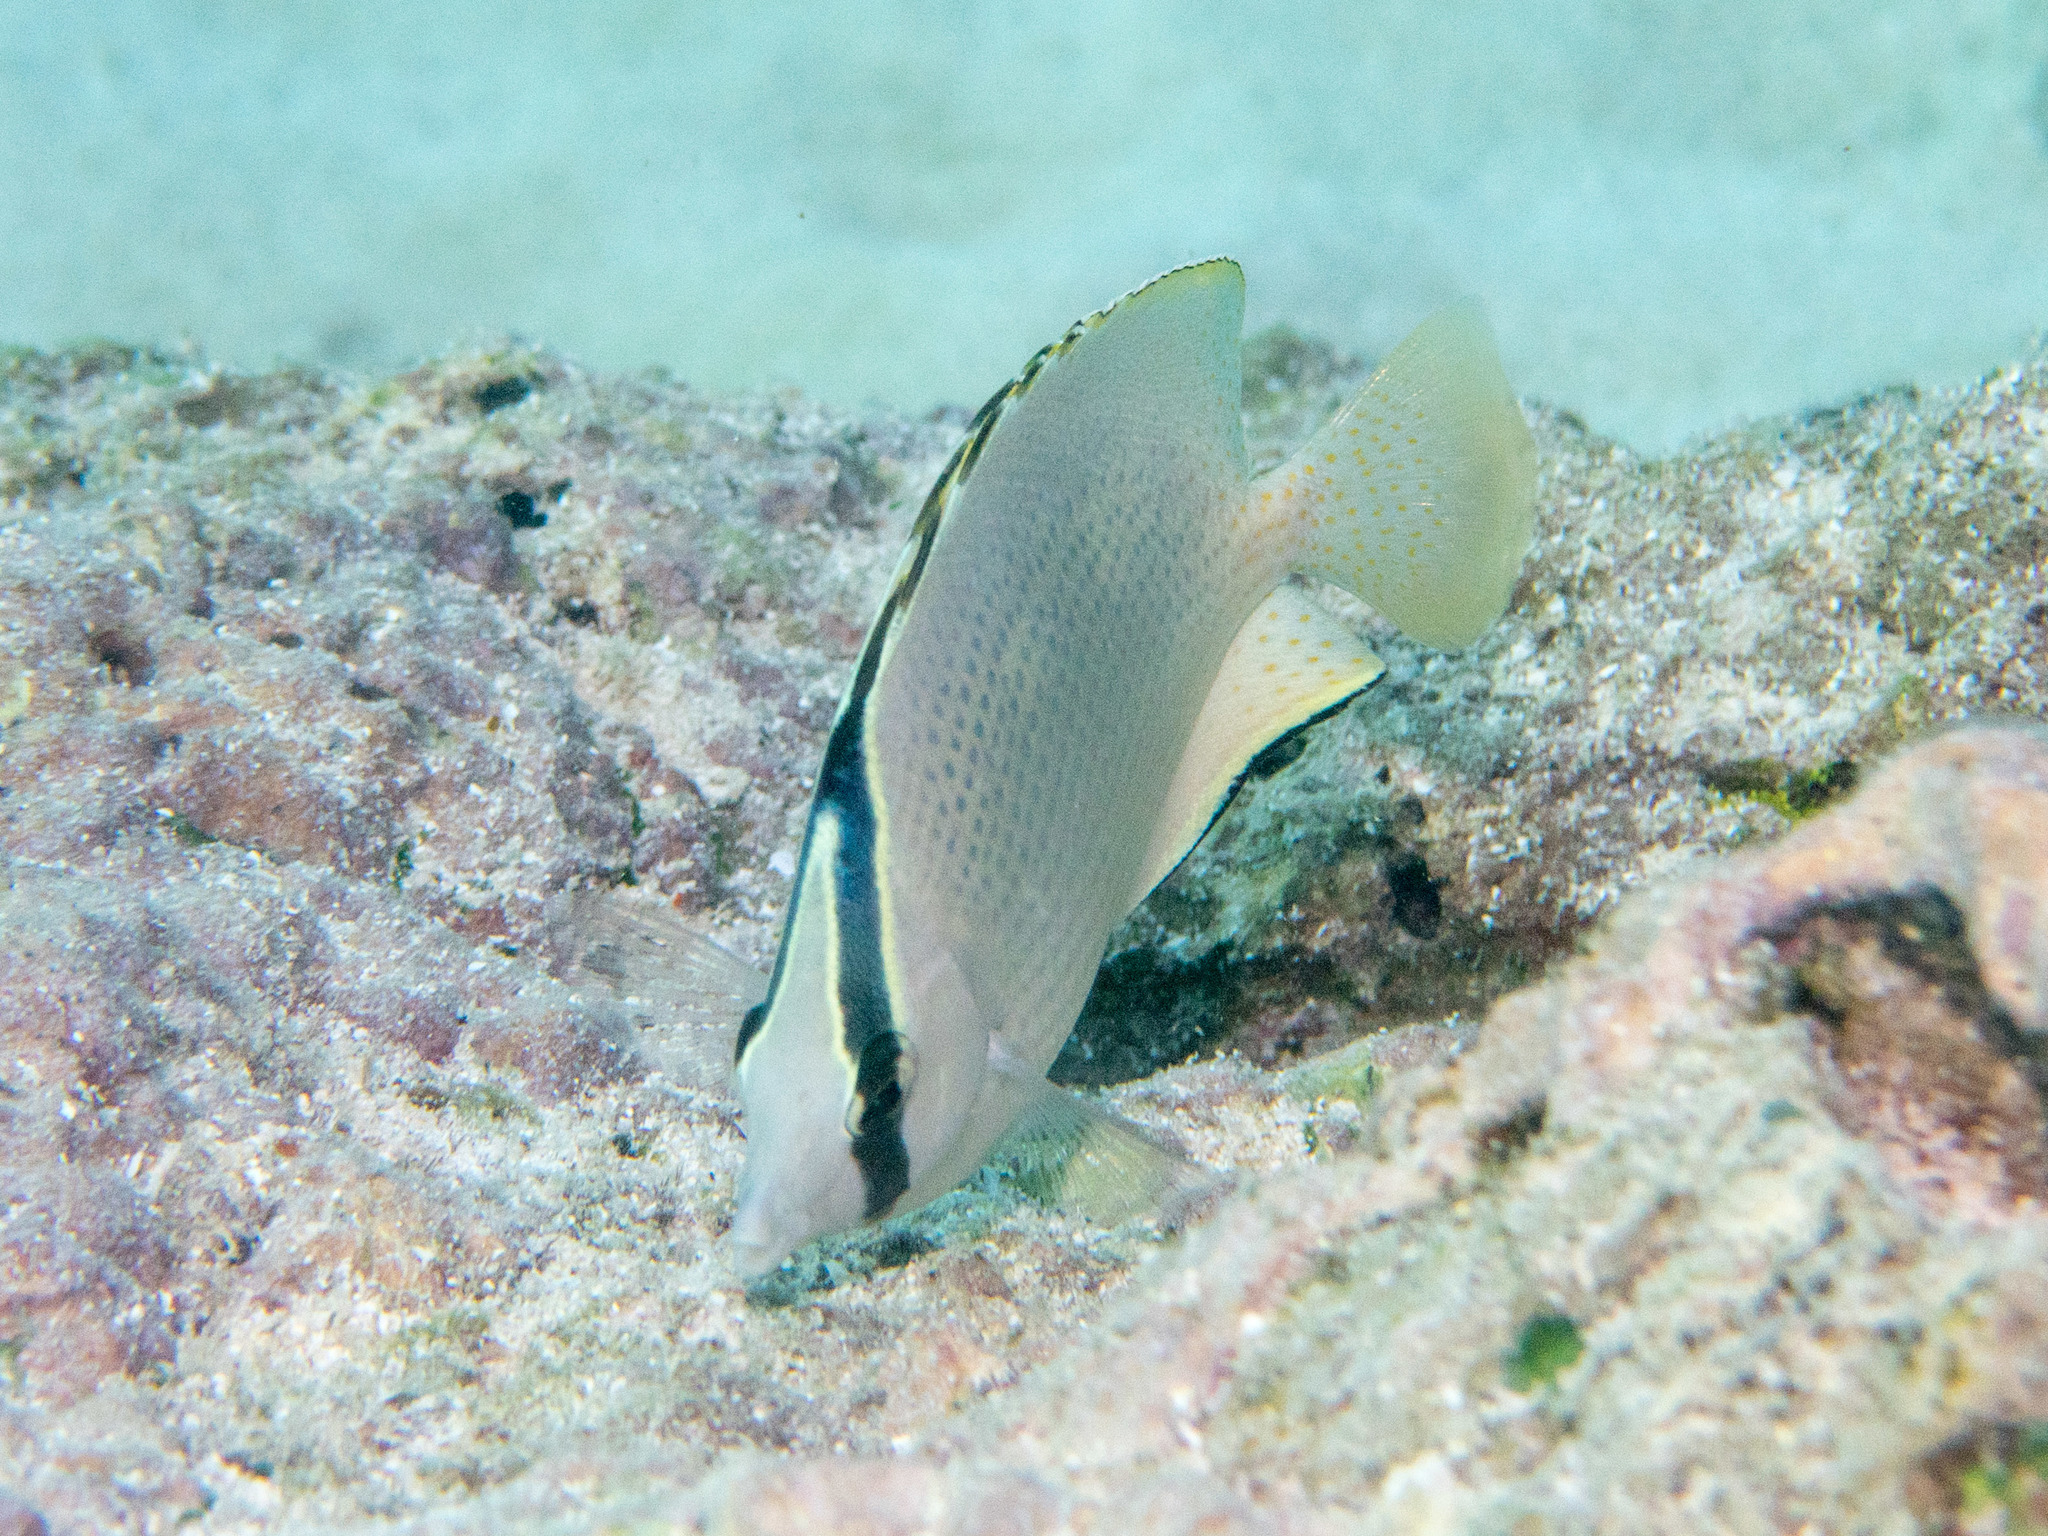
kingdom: Animalia
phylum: Chordata
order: Perciformes
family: Chaetodontidae
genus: Chaetodon
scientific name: Chaetodon citrinellus
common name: Speckled butterflyfish
